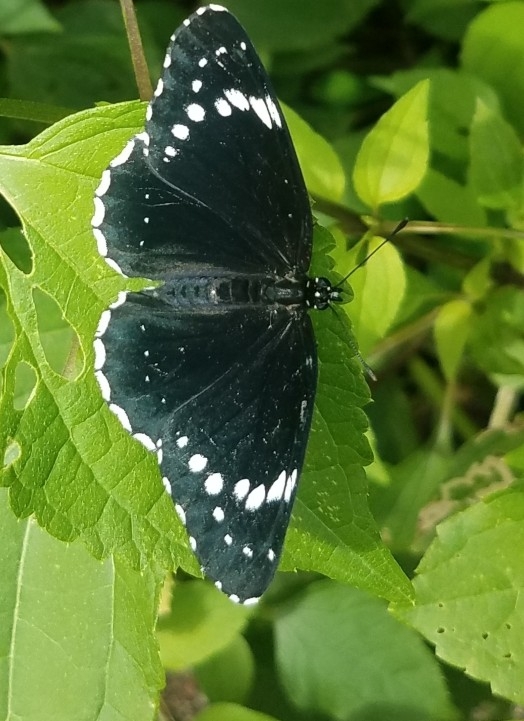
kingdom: Animalia
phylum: Arthropoda
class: Insecta
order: Lepidoptera
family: Nymphalidae
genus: Chlosyne
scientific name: Chlosyne hippodrome
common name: Simple patch
